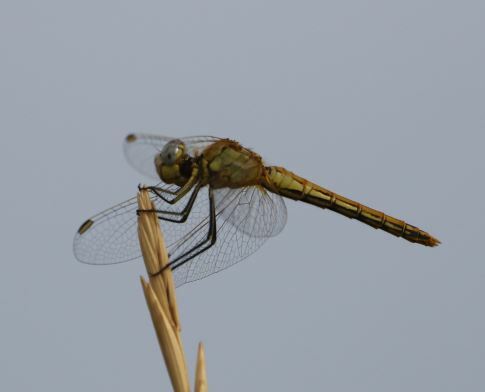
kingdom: Animalia
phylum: Arthropoda
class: Insecta
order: Odonata
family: Libellulidae
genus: Sympetrum
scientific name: Sympetrum fonscolombii
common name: Red-veined darter
